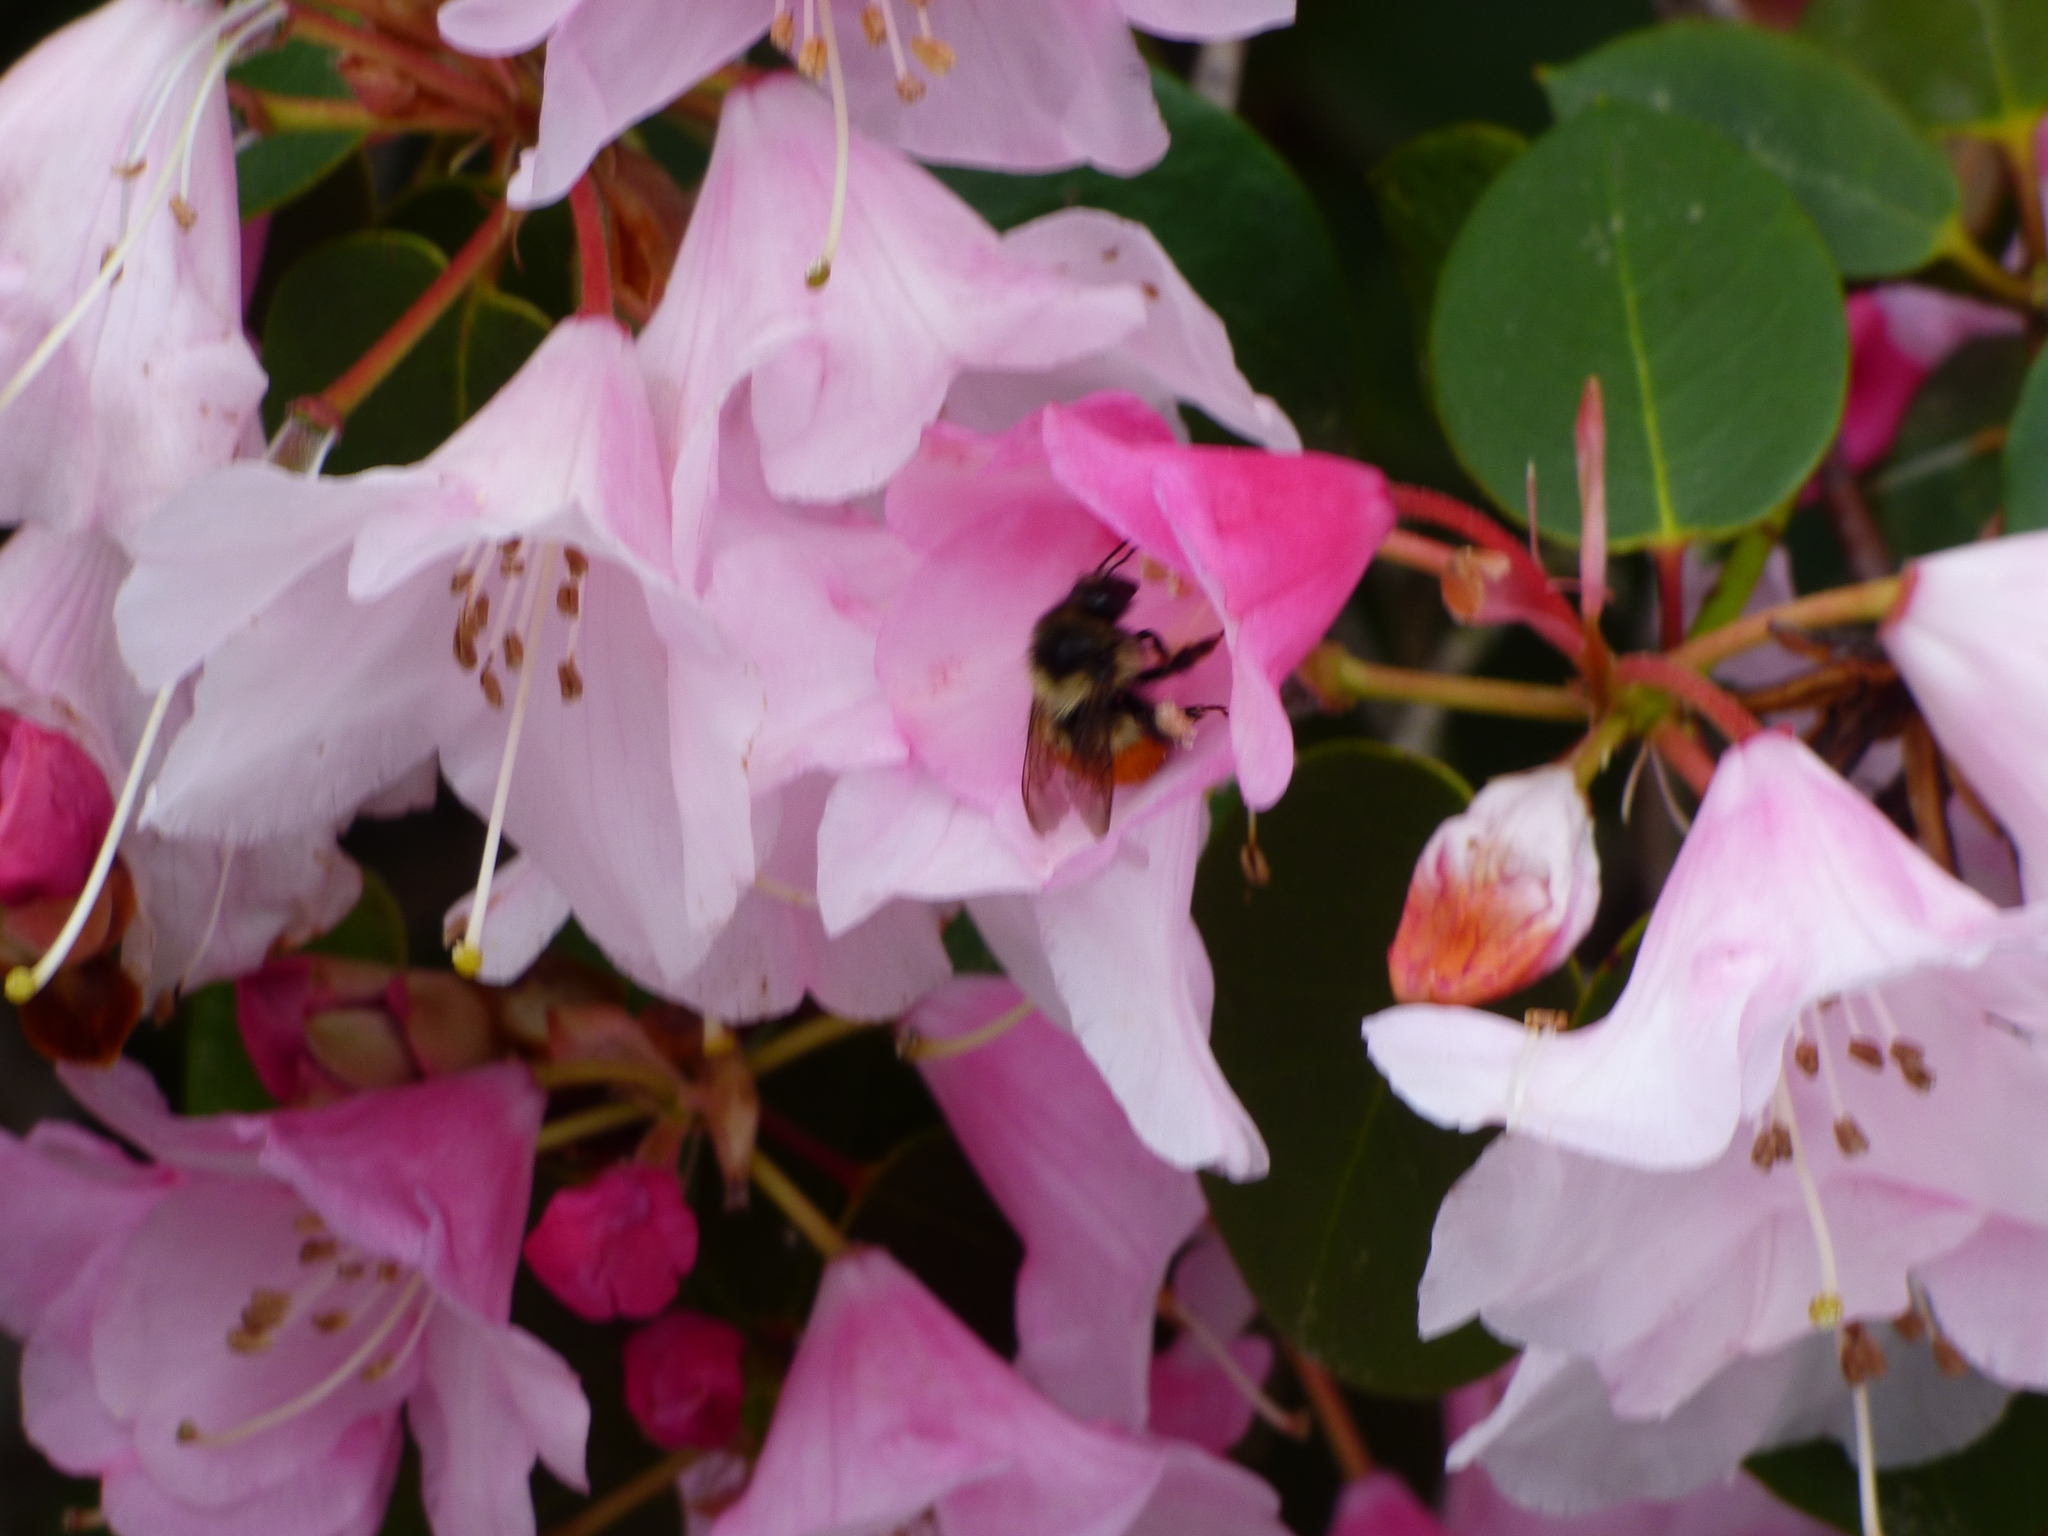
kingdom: Animalia
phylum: Arthropoda
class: Insecta
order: Hymenoptera
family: Apidae
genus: Bombus
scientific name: Bombus melanopygus
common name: Black tail bumble bee
